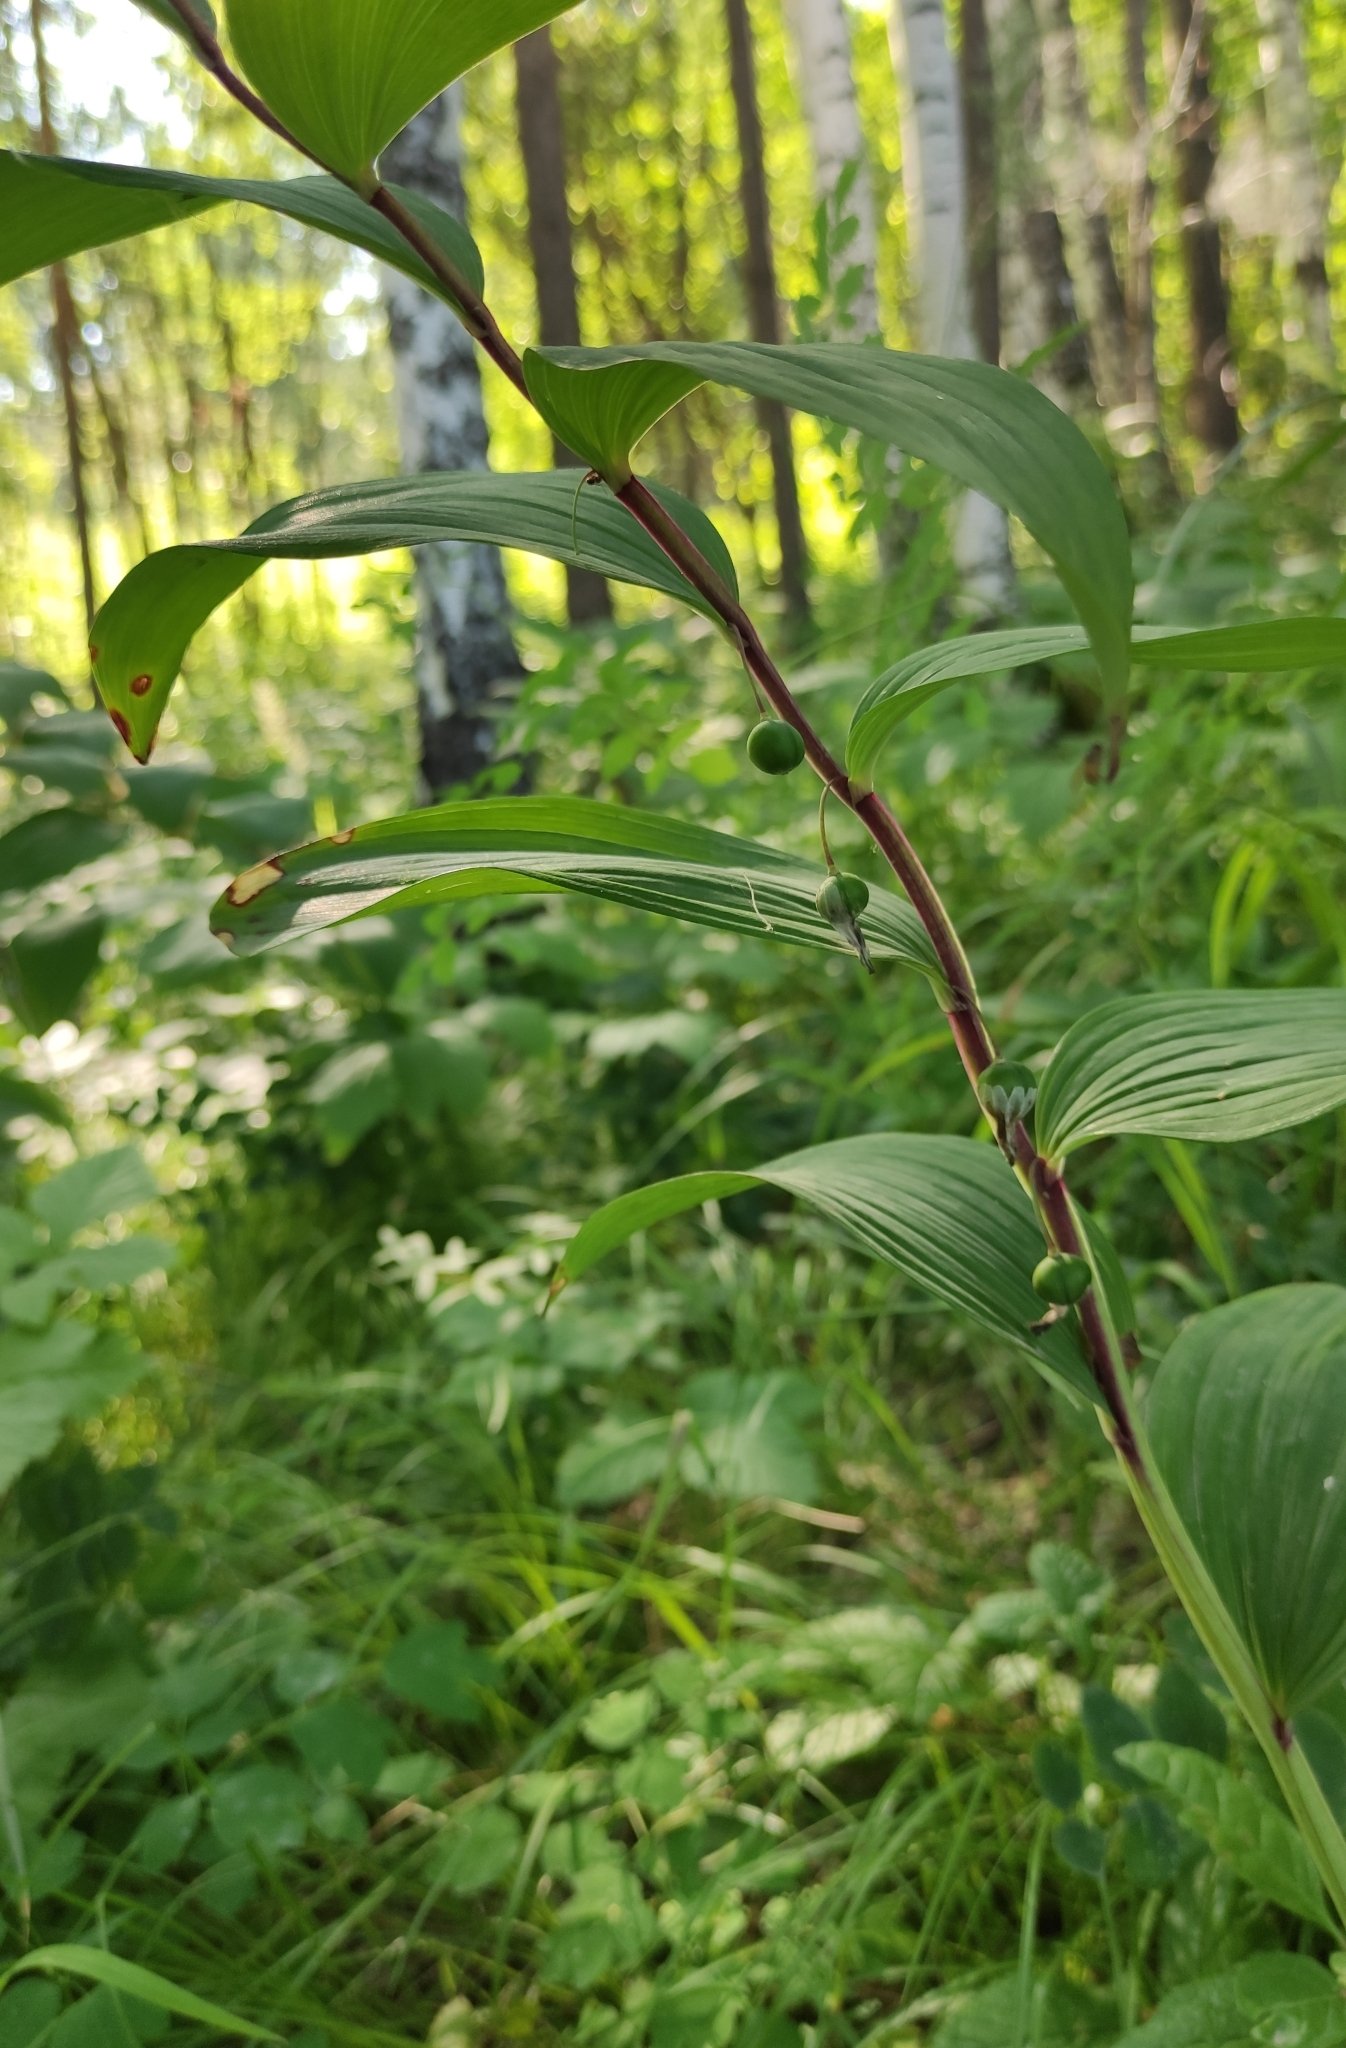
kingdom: Plantae
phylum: Tracheophyta
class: Liliopsida
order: Asparagales
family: Asparagaceae
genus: Polygonatum
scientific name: Polygonatum odoratum
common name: Angular solomon's-seal
